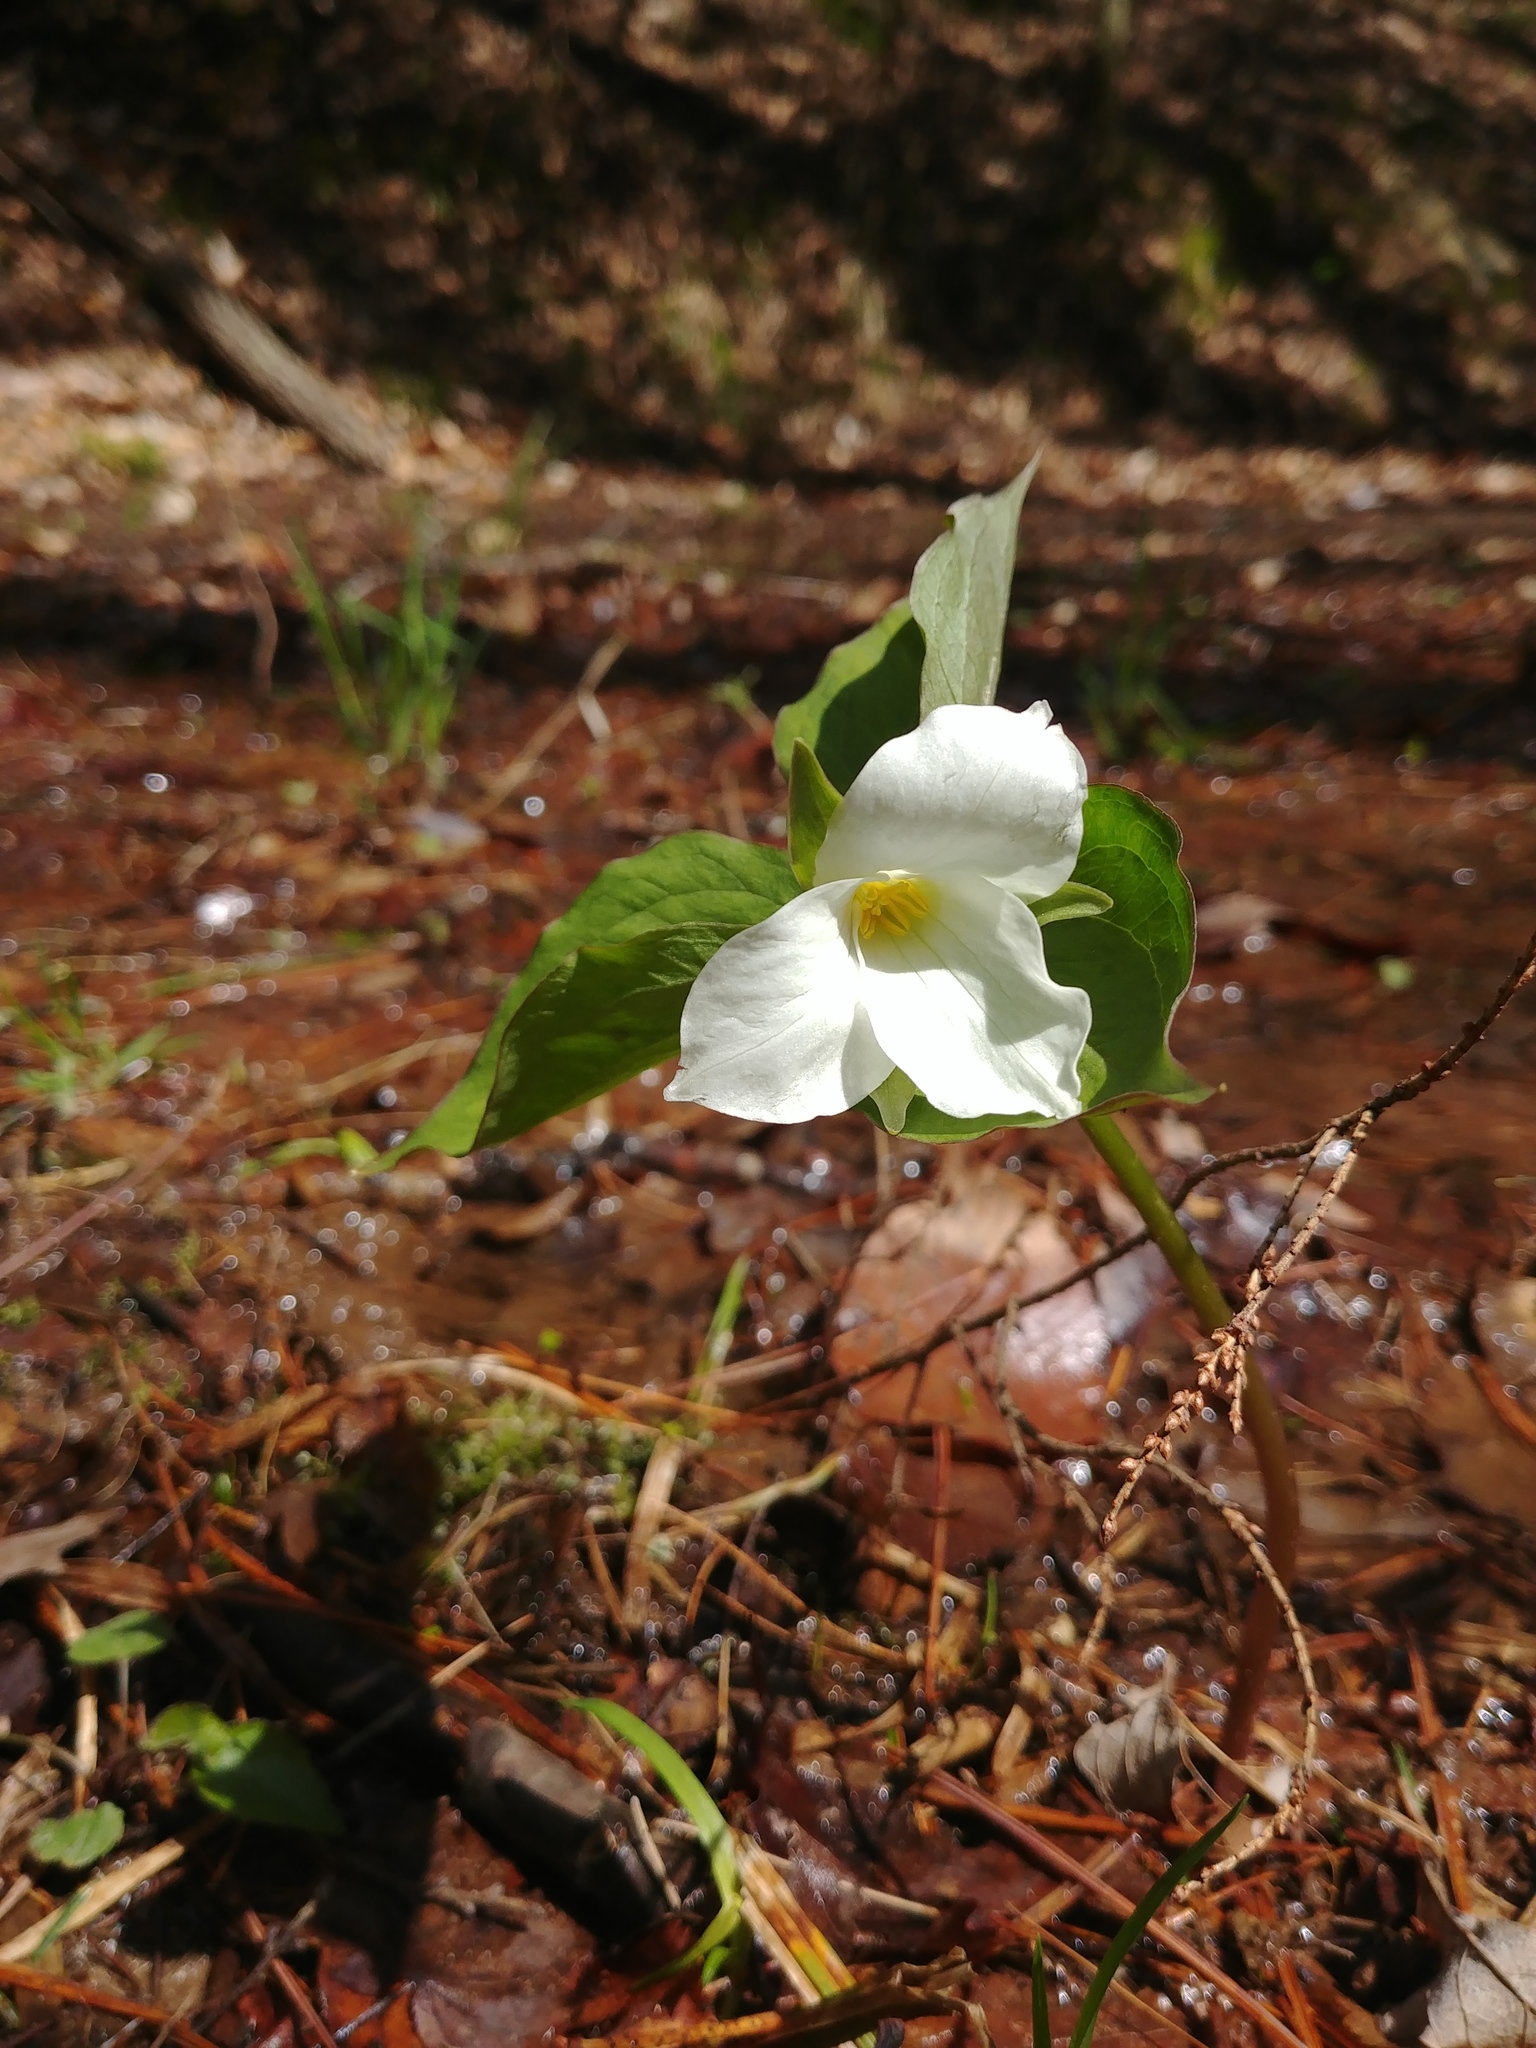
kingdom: Plantae
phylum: Tracheophyta
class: Liliopsida
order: Liliales
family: Melanthiaceae
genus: Trillium
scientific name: Trillium grandiflorum
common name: Great white trillium
